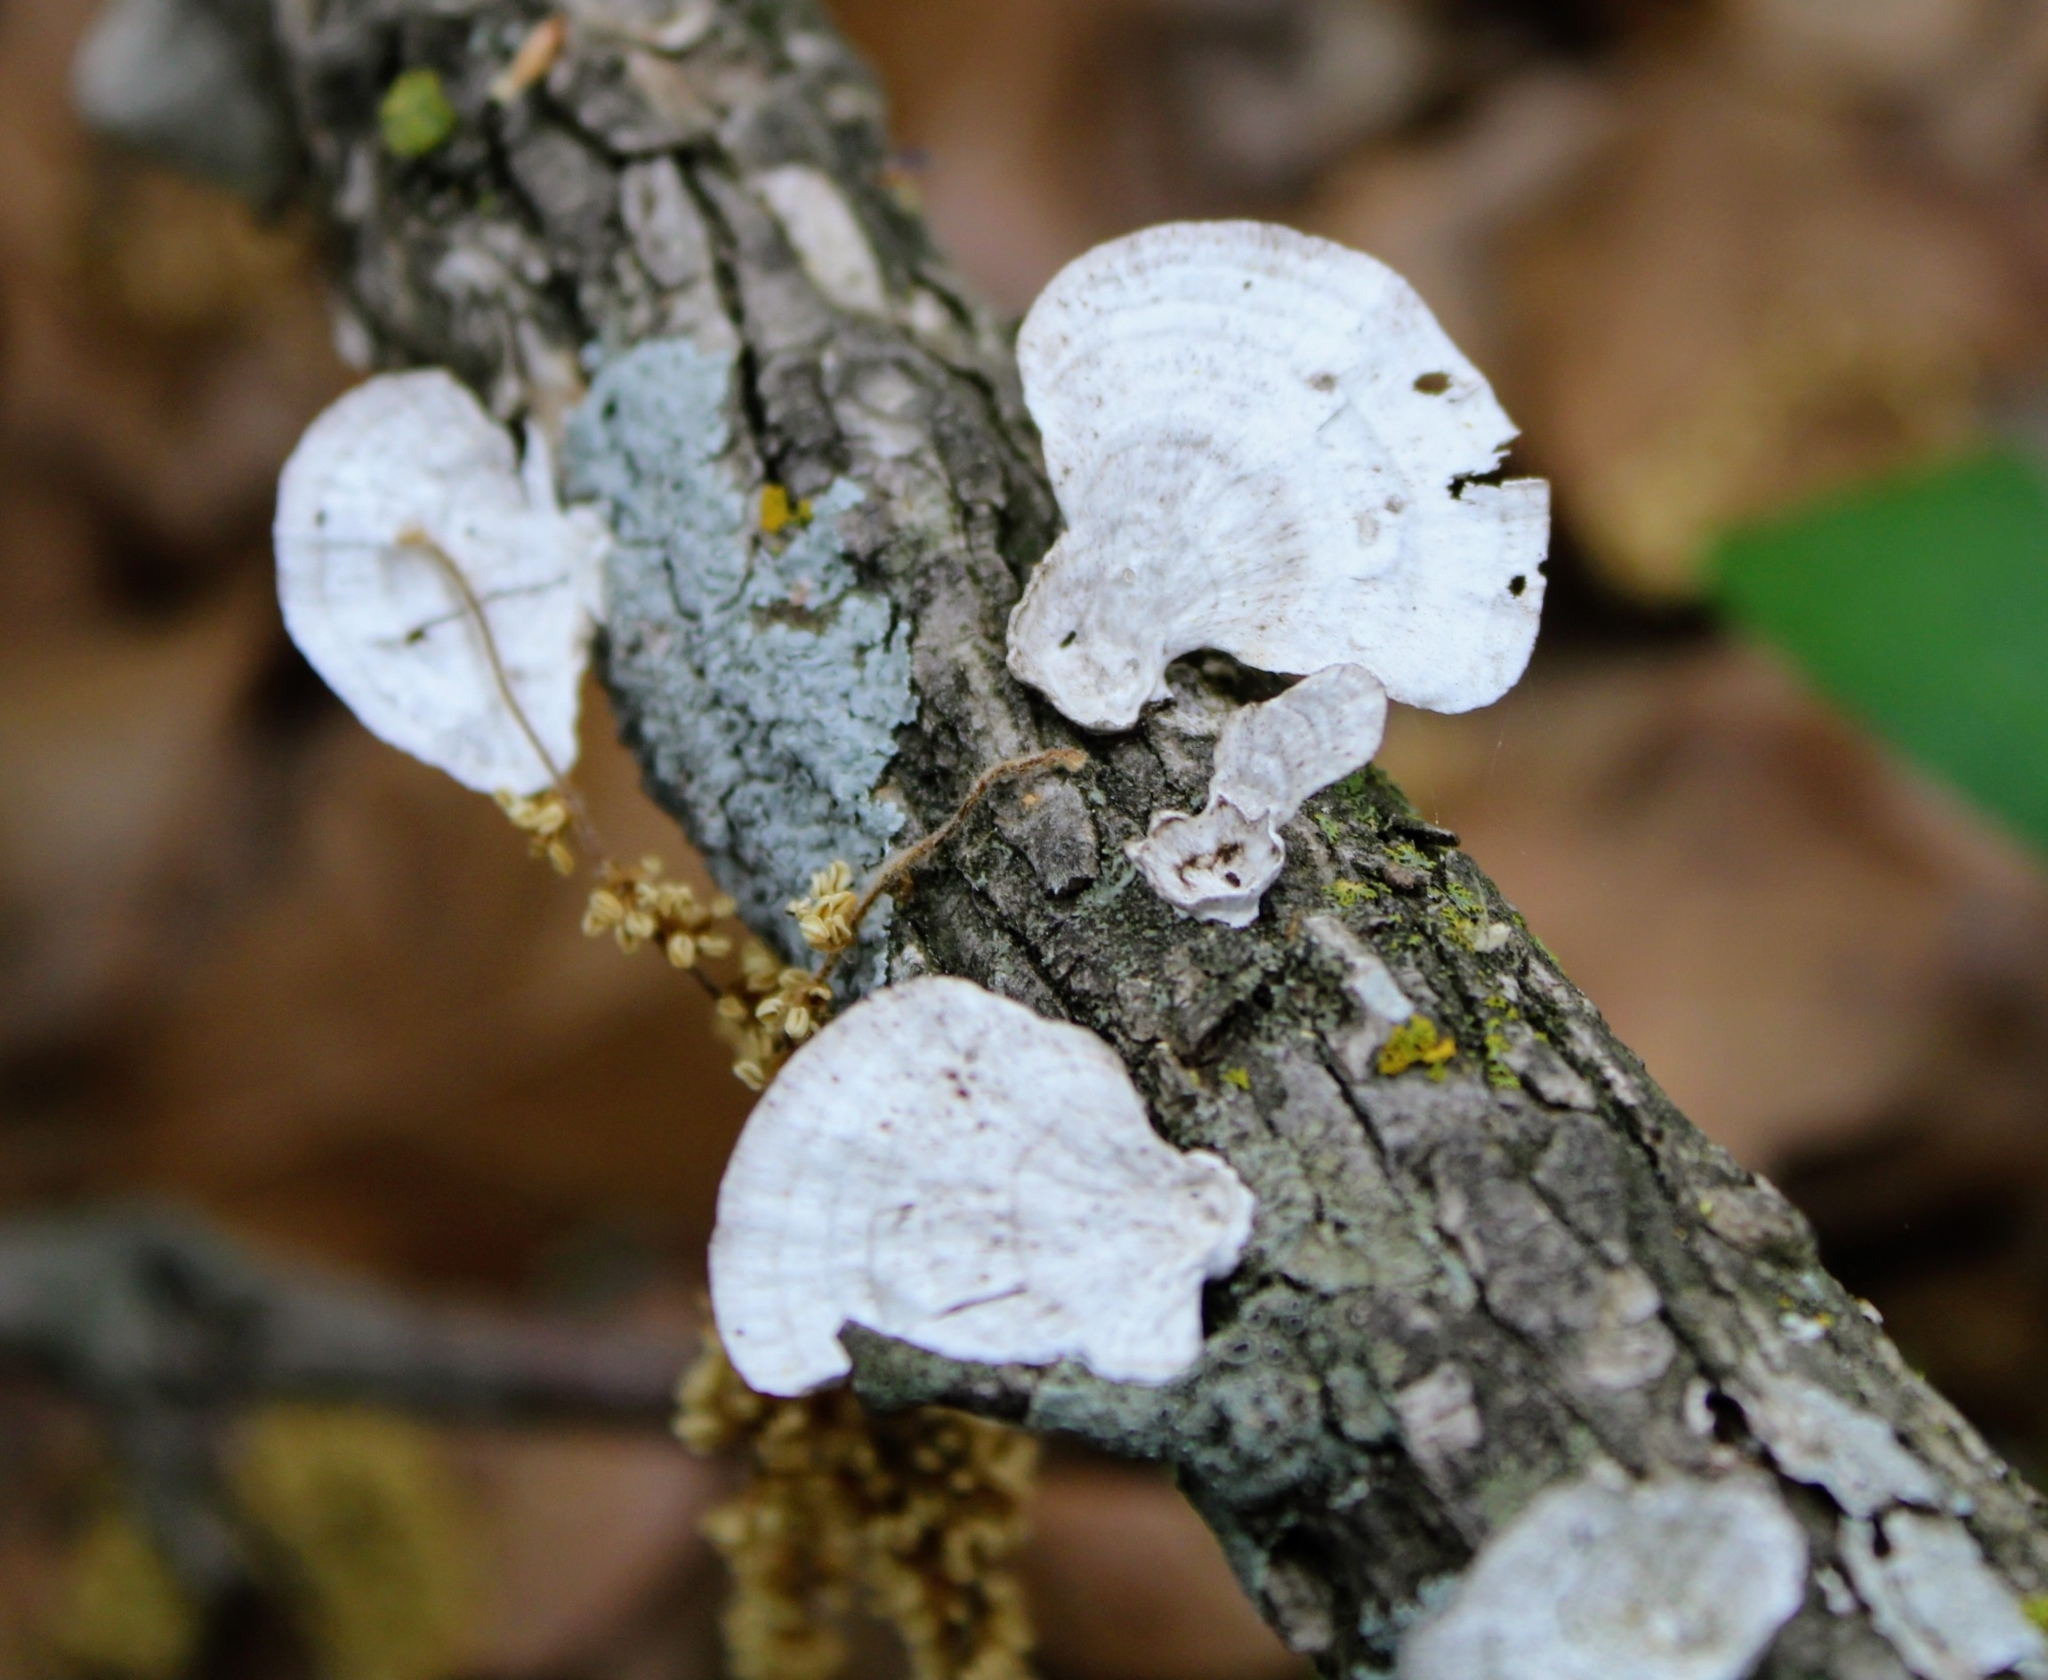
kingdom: Fungi
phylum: Basidiomycota
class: Agaricomycetes
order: Polyporales
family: Polyporaceae
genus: Poronidulus
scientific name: Poronidulus conchifer
